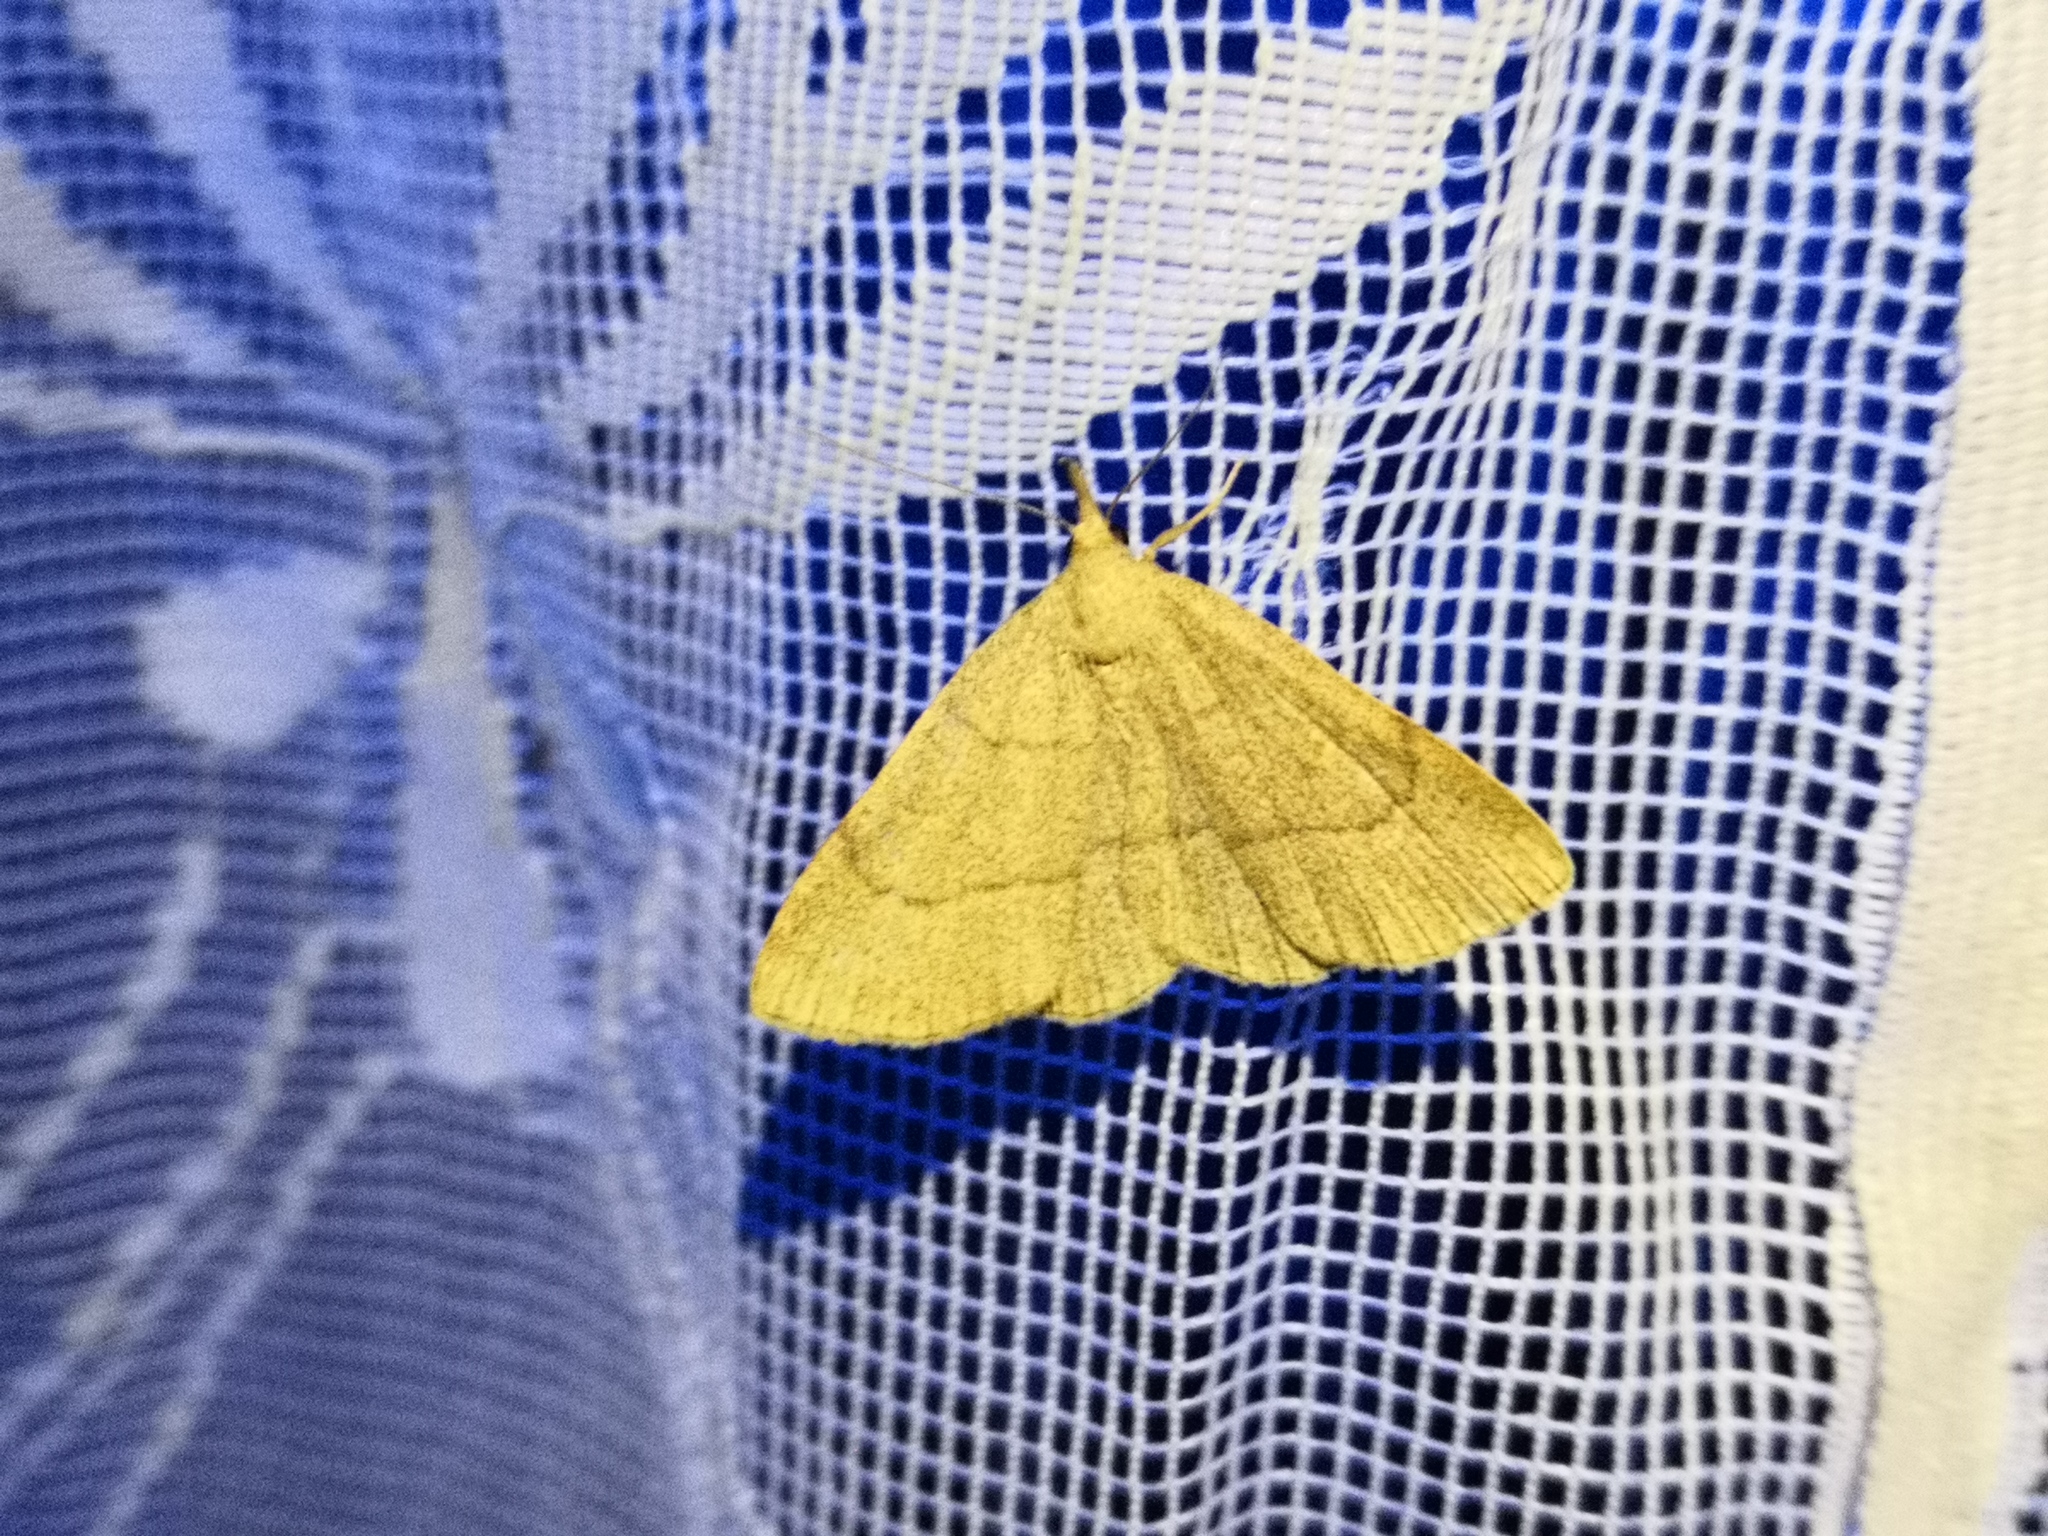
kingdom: Animalia
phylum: Arthropoda
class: Insecta
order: Lepidoptera
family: Erebidae
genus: Paracolax
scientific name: Paracolax tristalis
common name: Clay fan-foot
